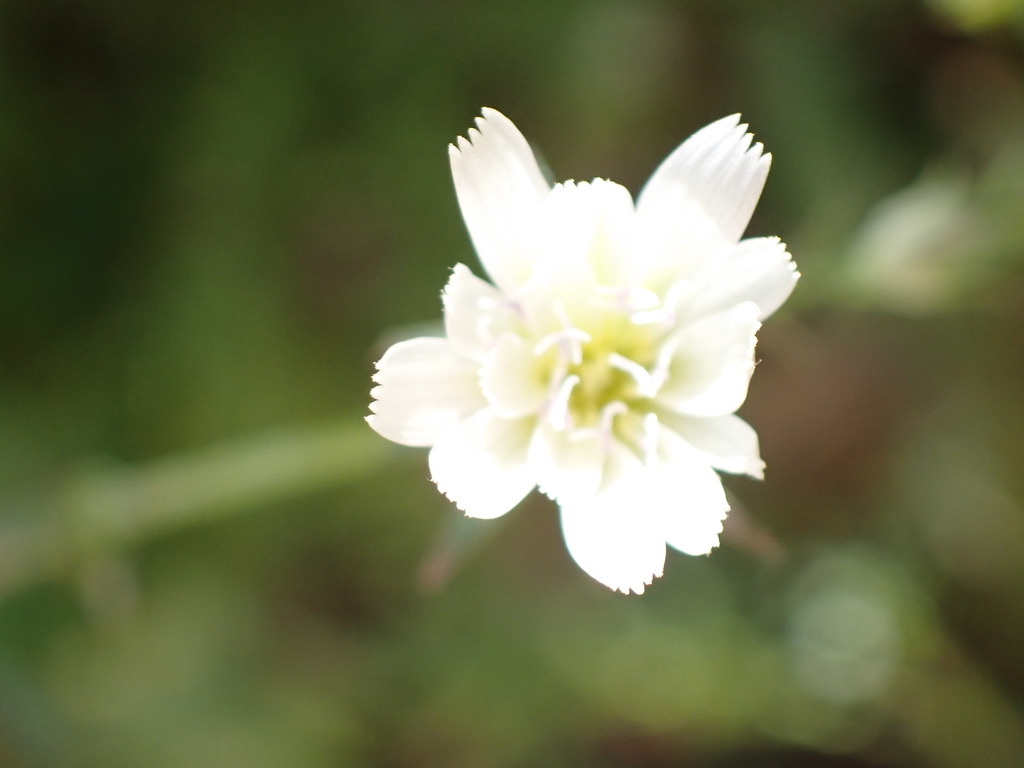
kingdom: Plantae
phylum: Tracheophyta
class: Magnoliopsida
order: Asterales
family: Asteraceae
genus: Rafinesquia
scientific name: Rafinesquia californica
